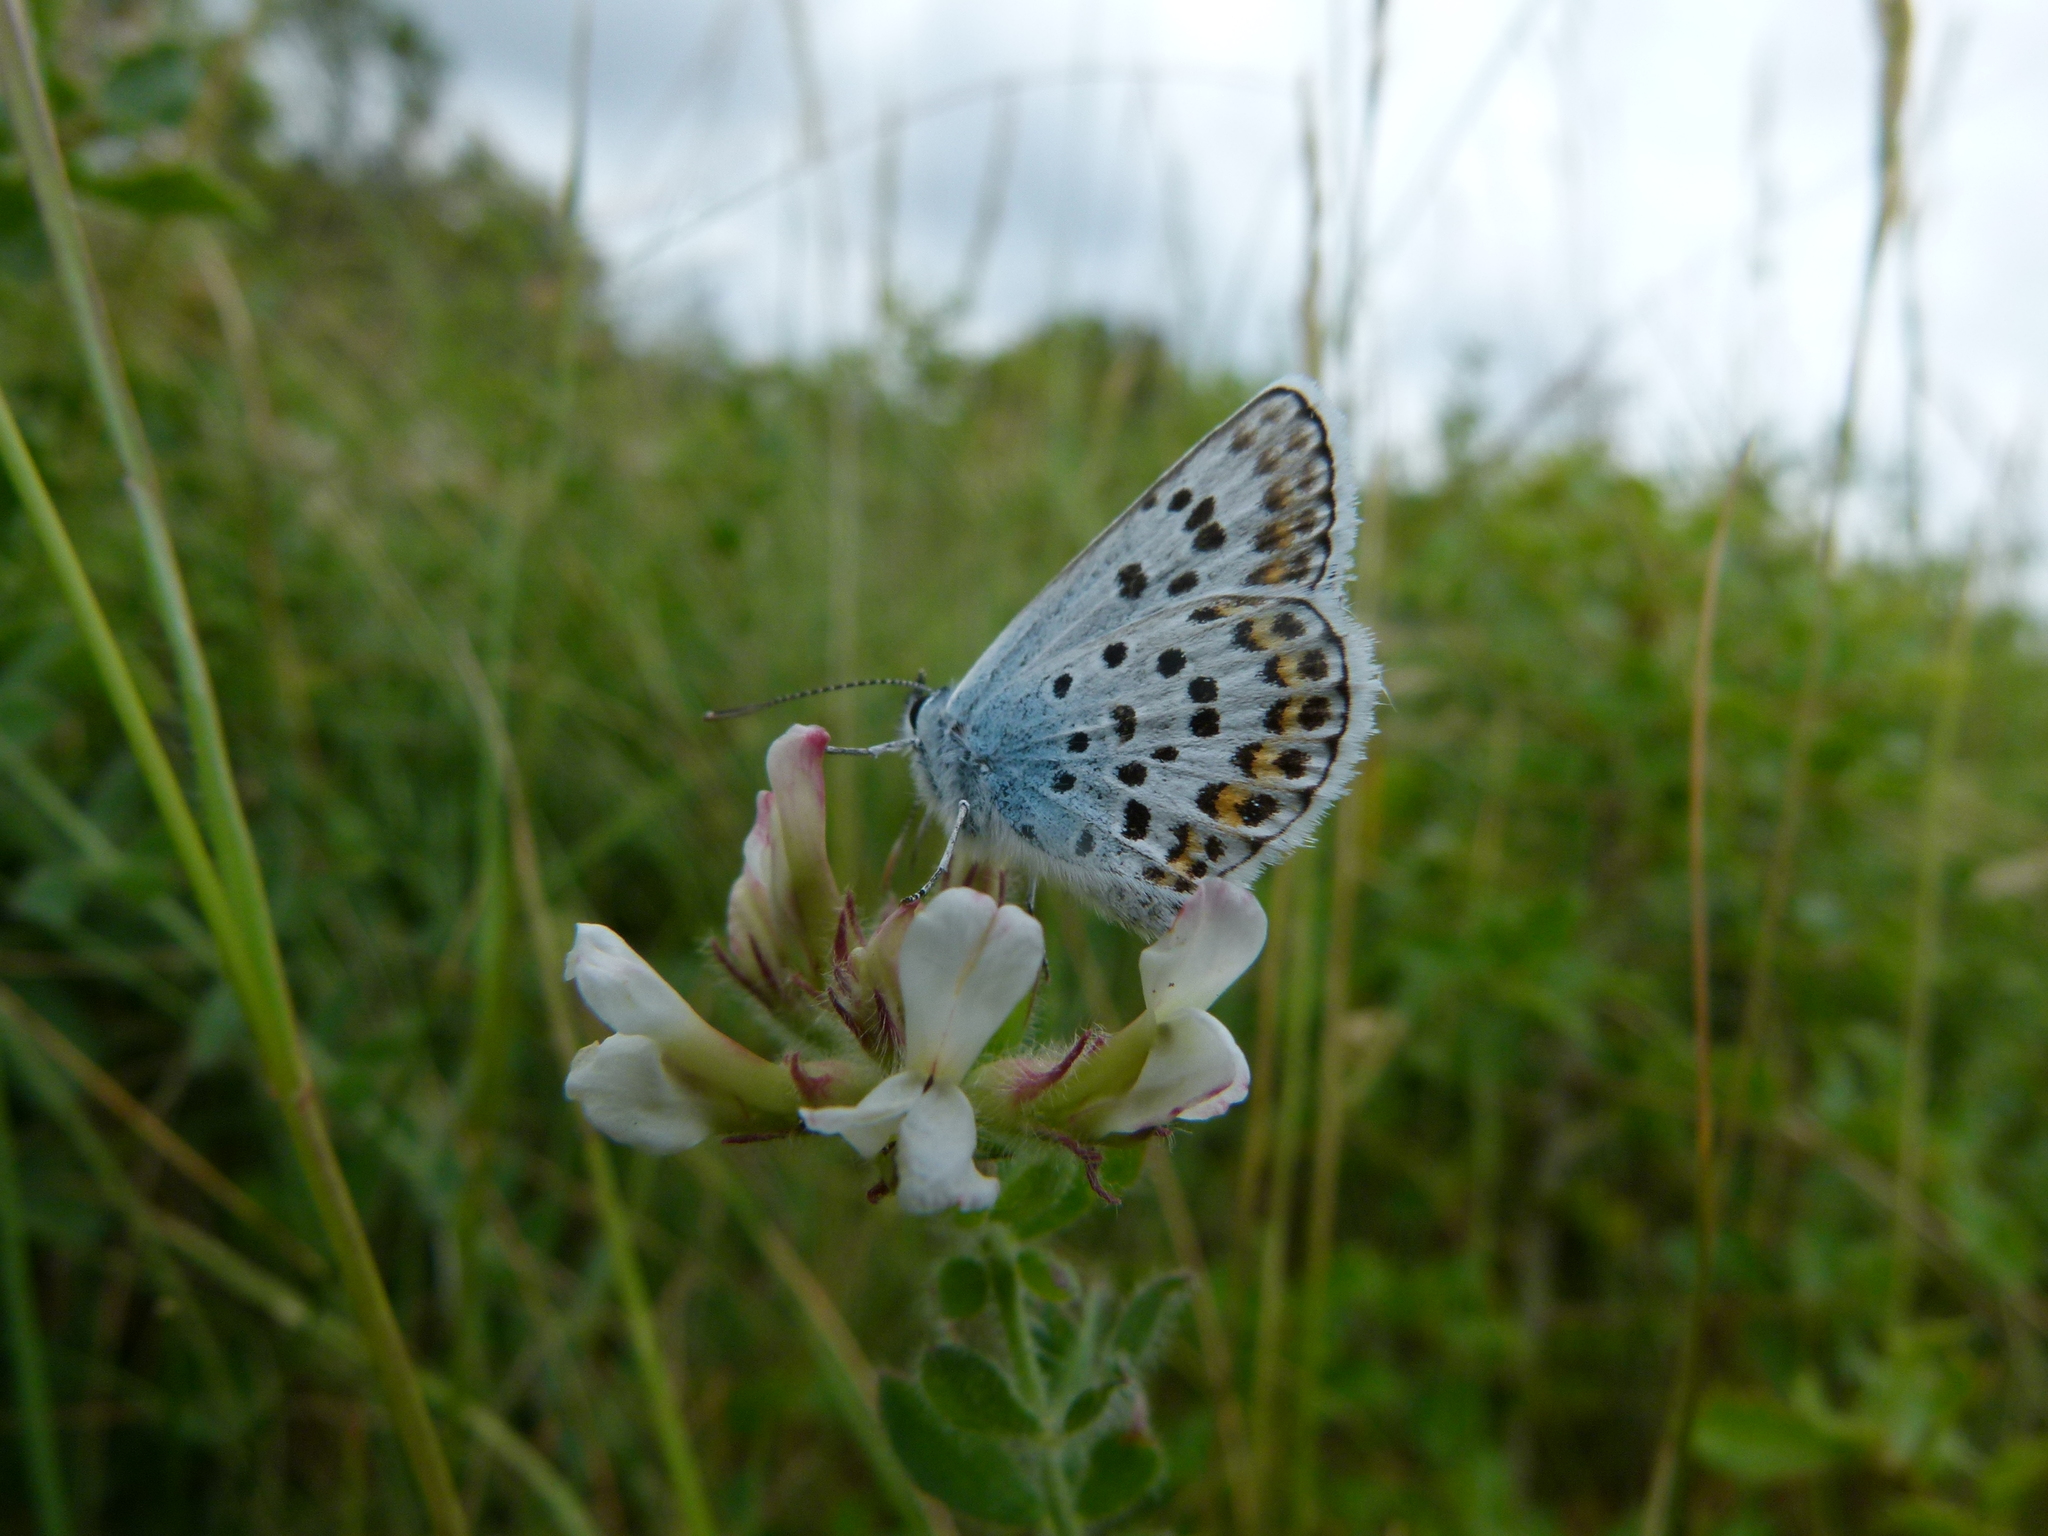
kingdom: Animalia
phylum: Arthropoda
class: Insecta
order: Lepidoptera
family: Lycaenidae
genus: Plebejus
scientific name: Plebejus argus
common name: Silver-studded blue
